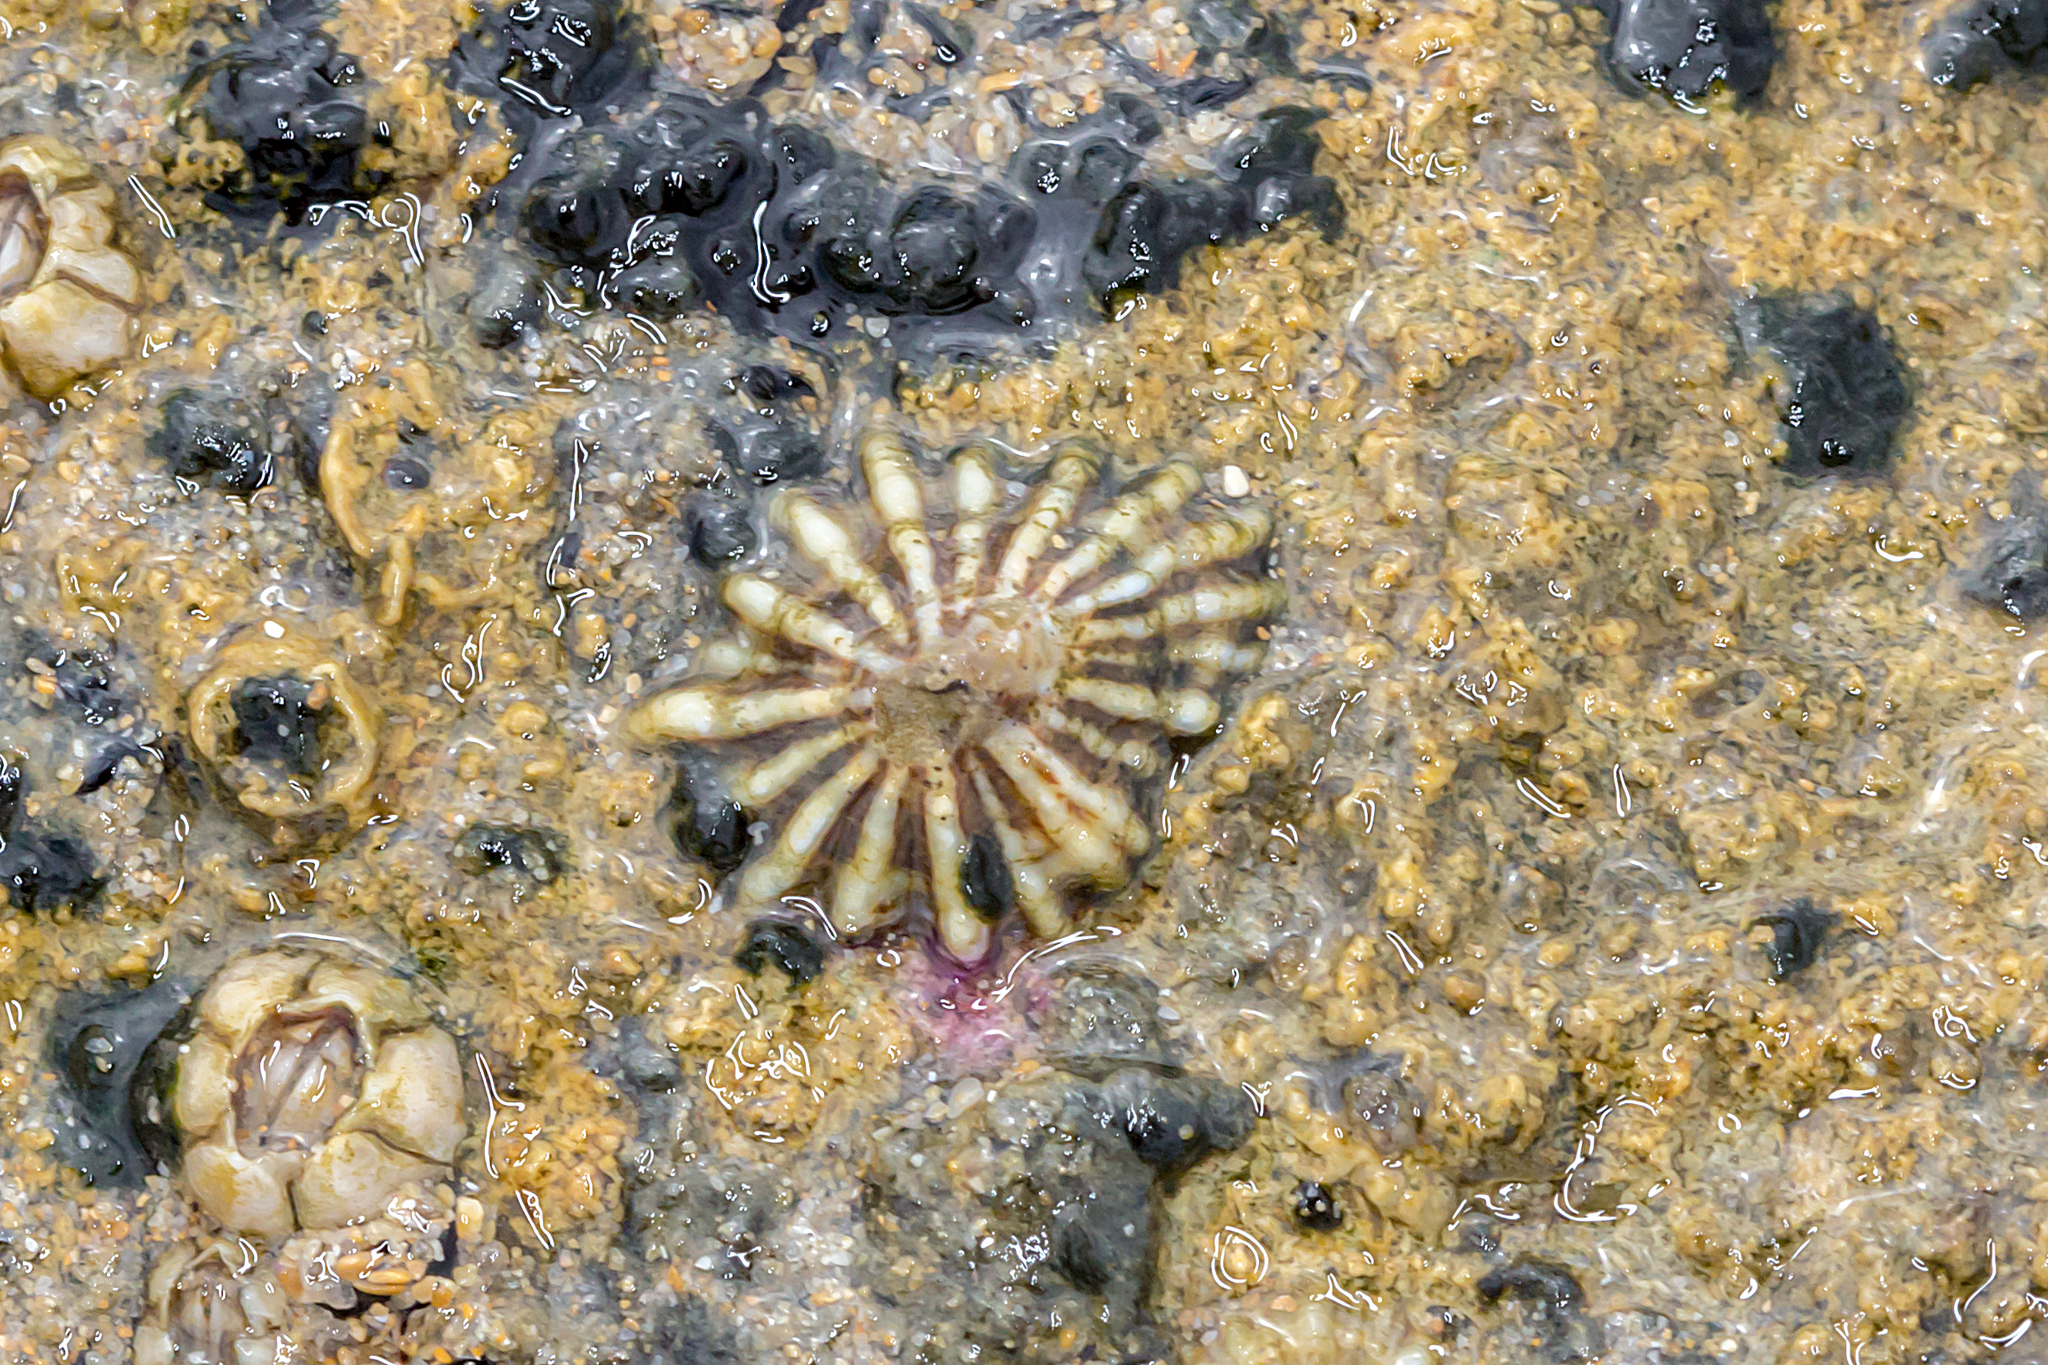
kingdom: Animalia
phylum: Mollusca
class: Gastropoda
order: Siphonariida
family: Siphonariidae
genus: Siphonaria
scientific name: Siphonaria diemenensis
